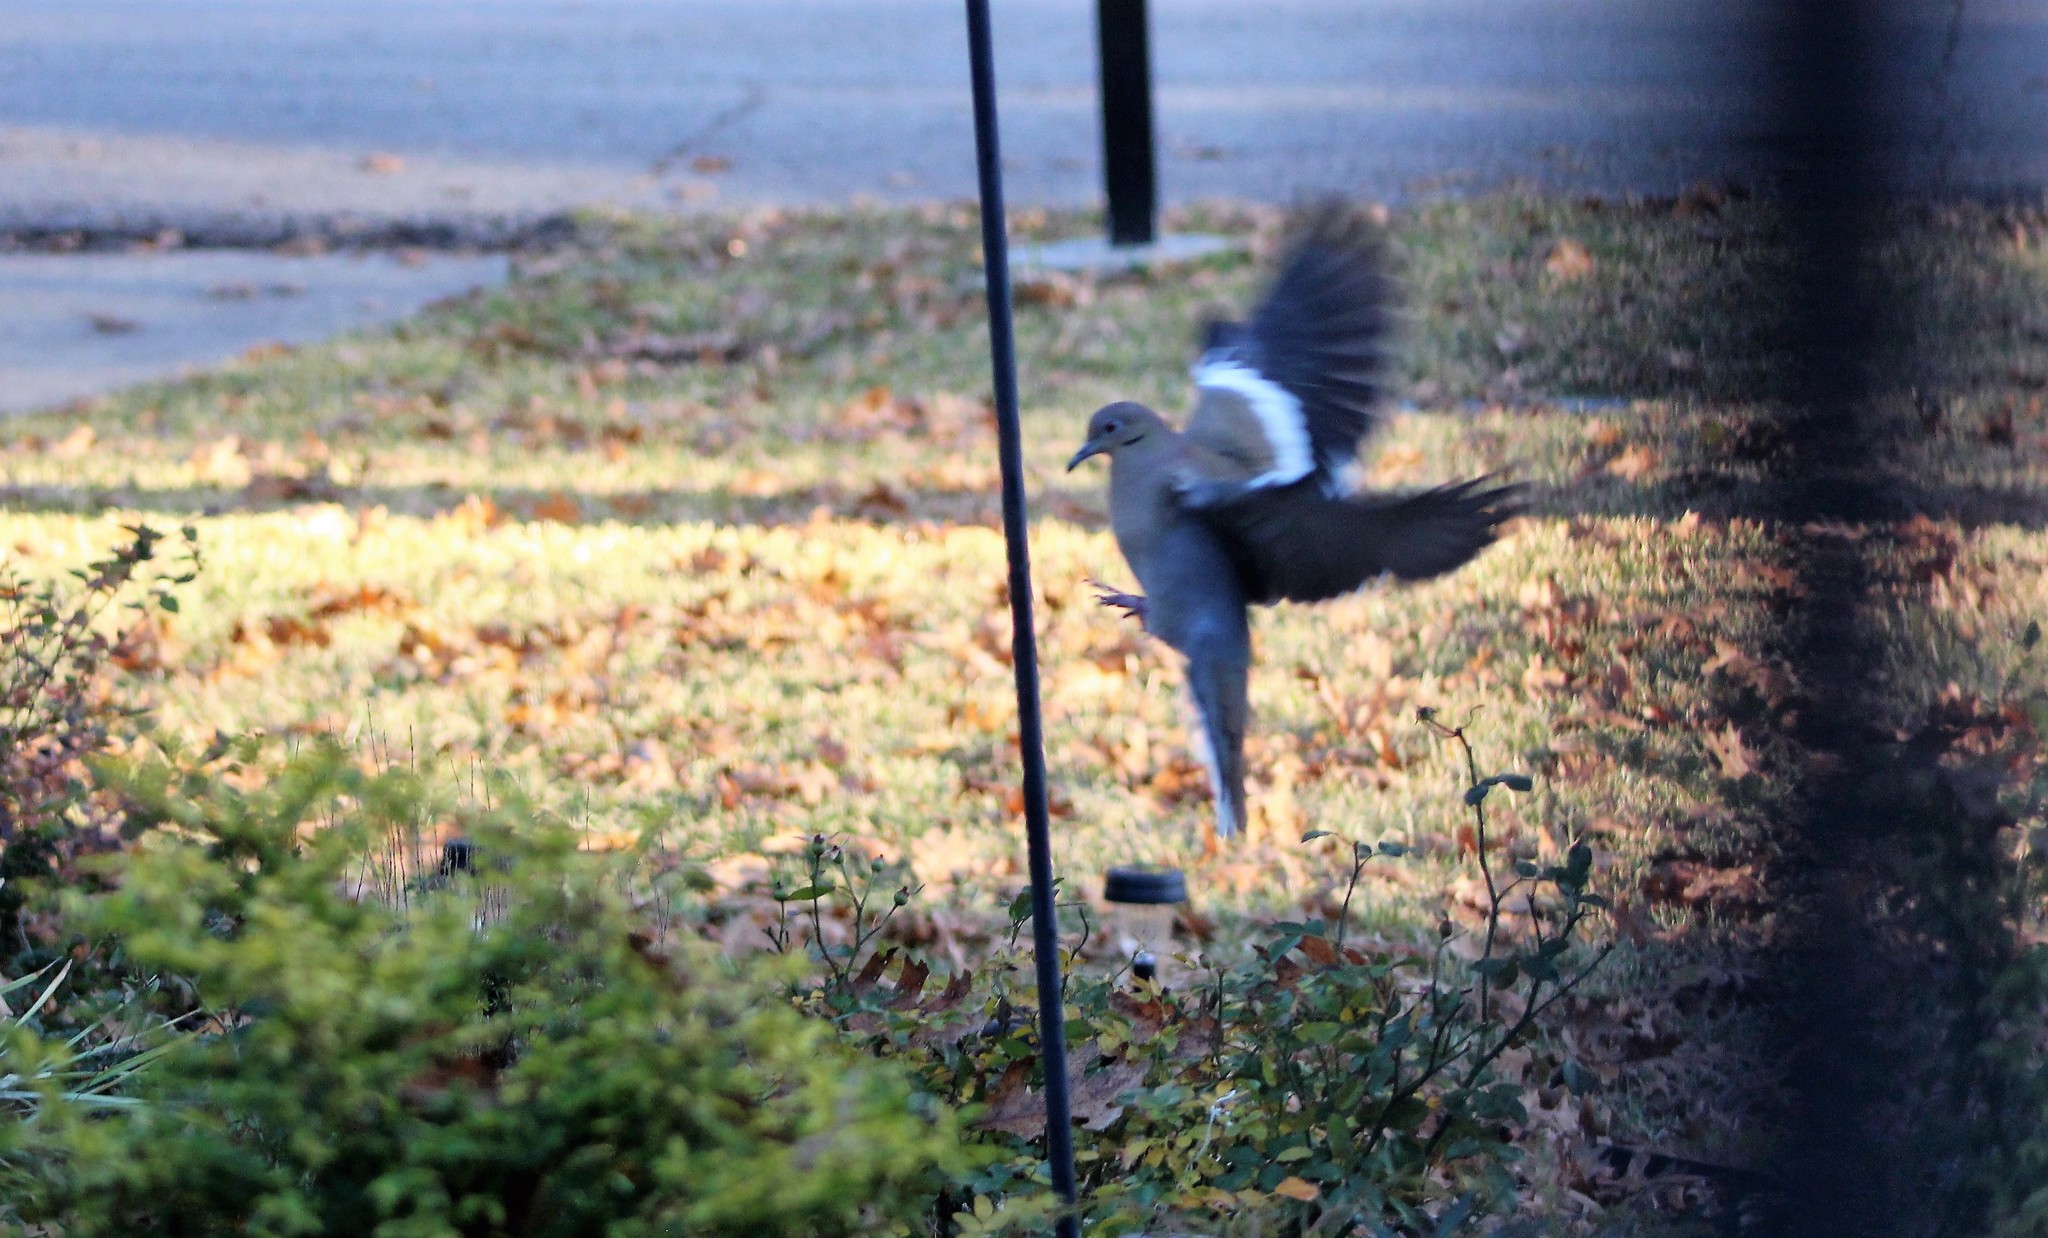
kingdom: Animalia
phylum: Chordata
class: Aves
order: Columbiformes
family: Columbidae
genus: Zenaida
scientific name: Zenaida asiatica
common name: White-winged dove
